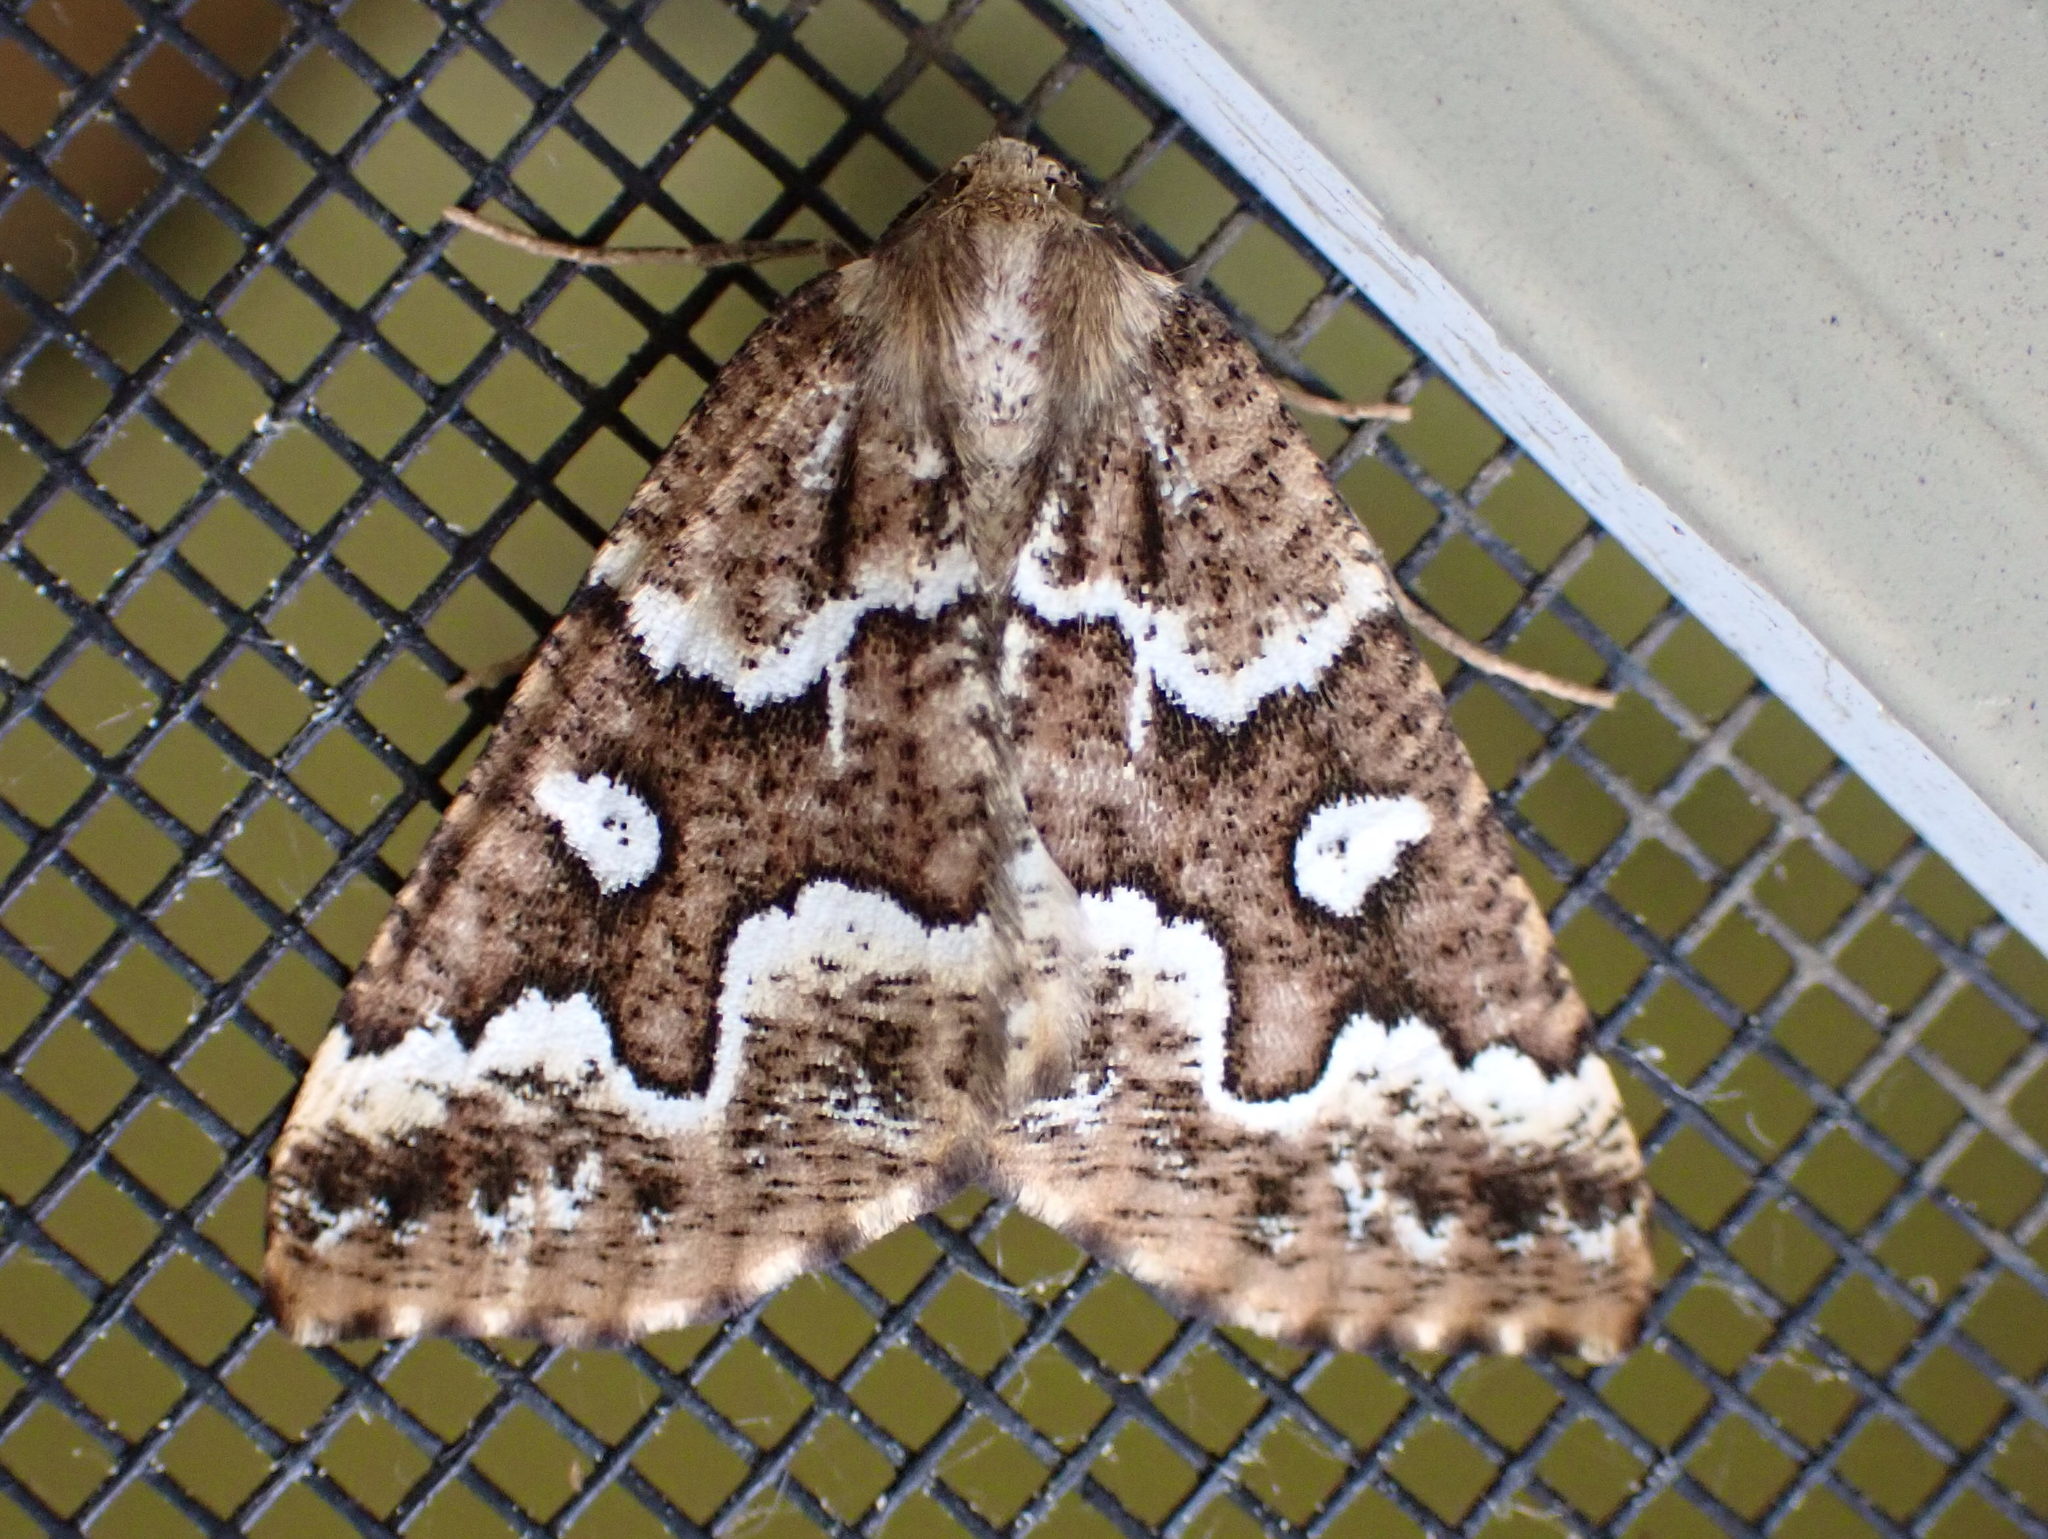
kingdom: Animalia
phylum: Arthropoda
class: Insecta
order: Lepidoptera
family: Geometridae
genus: Caripeta
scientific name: Caripeta divisata
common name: Gray spruce looper
